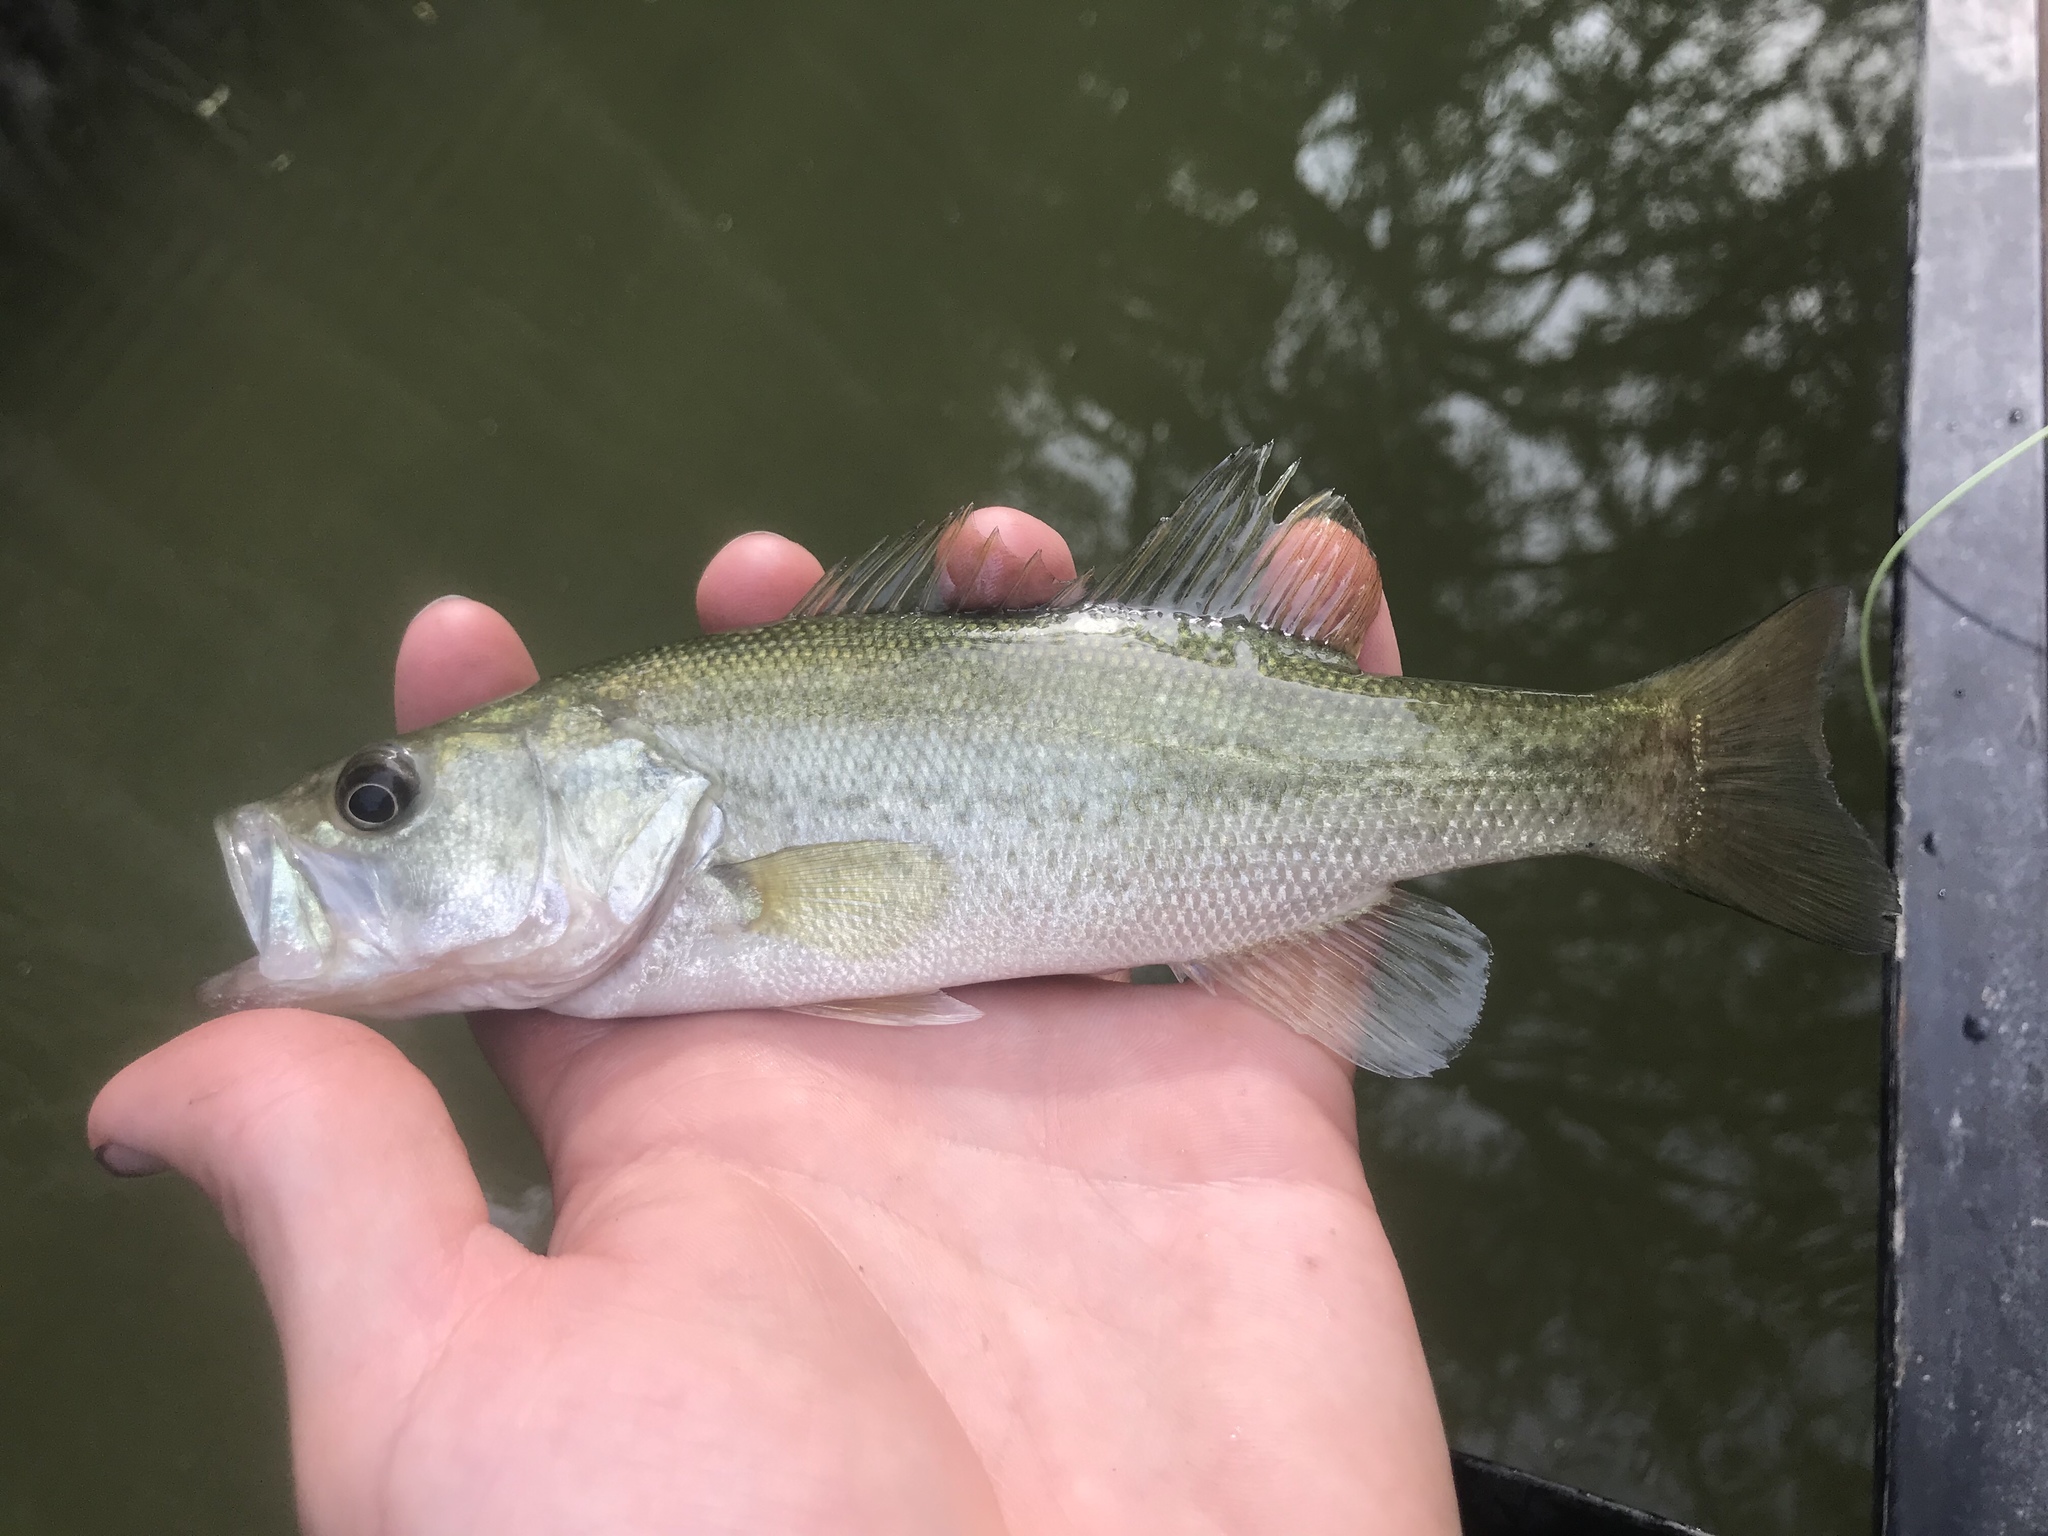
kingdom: Animalia
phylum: Chordata
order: Perciformes
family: Centrarchidae
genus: Micropterus
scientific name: Micropterus
